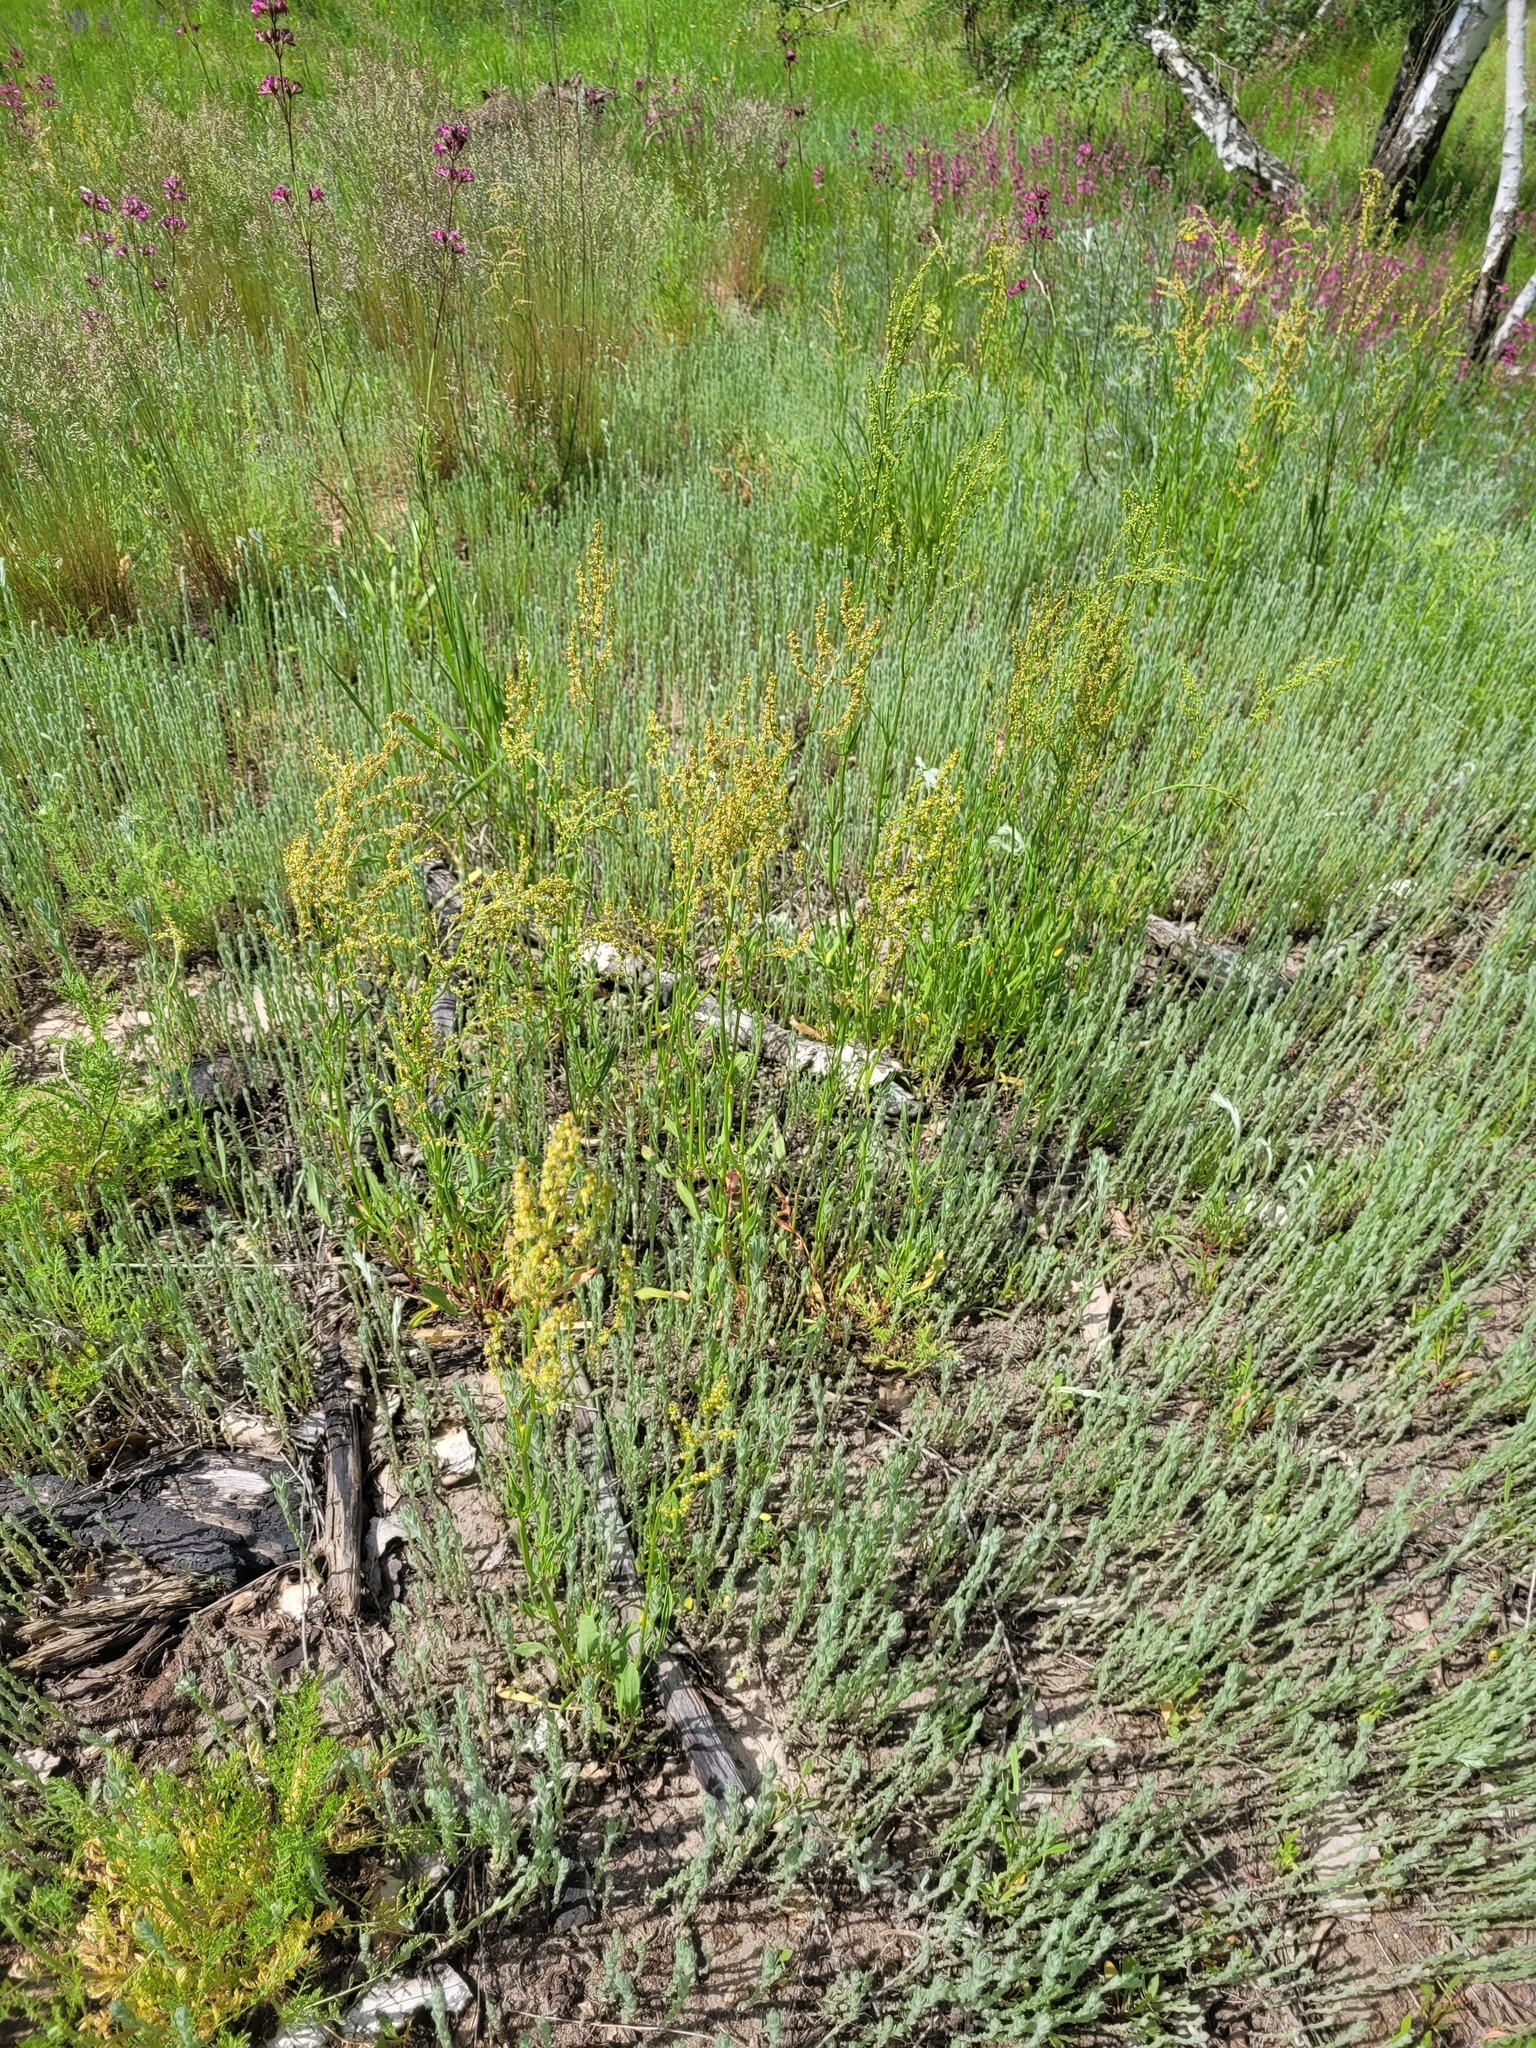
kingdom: Plantae
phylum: Tracheophyta
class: Magnoliopsida
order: Caryophyllales
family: Polygonaceae
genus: Rumex
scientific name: Rumex acetosella
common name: Common sheep sorrel
